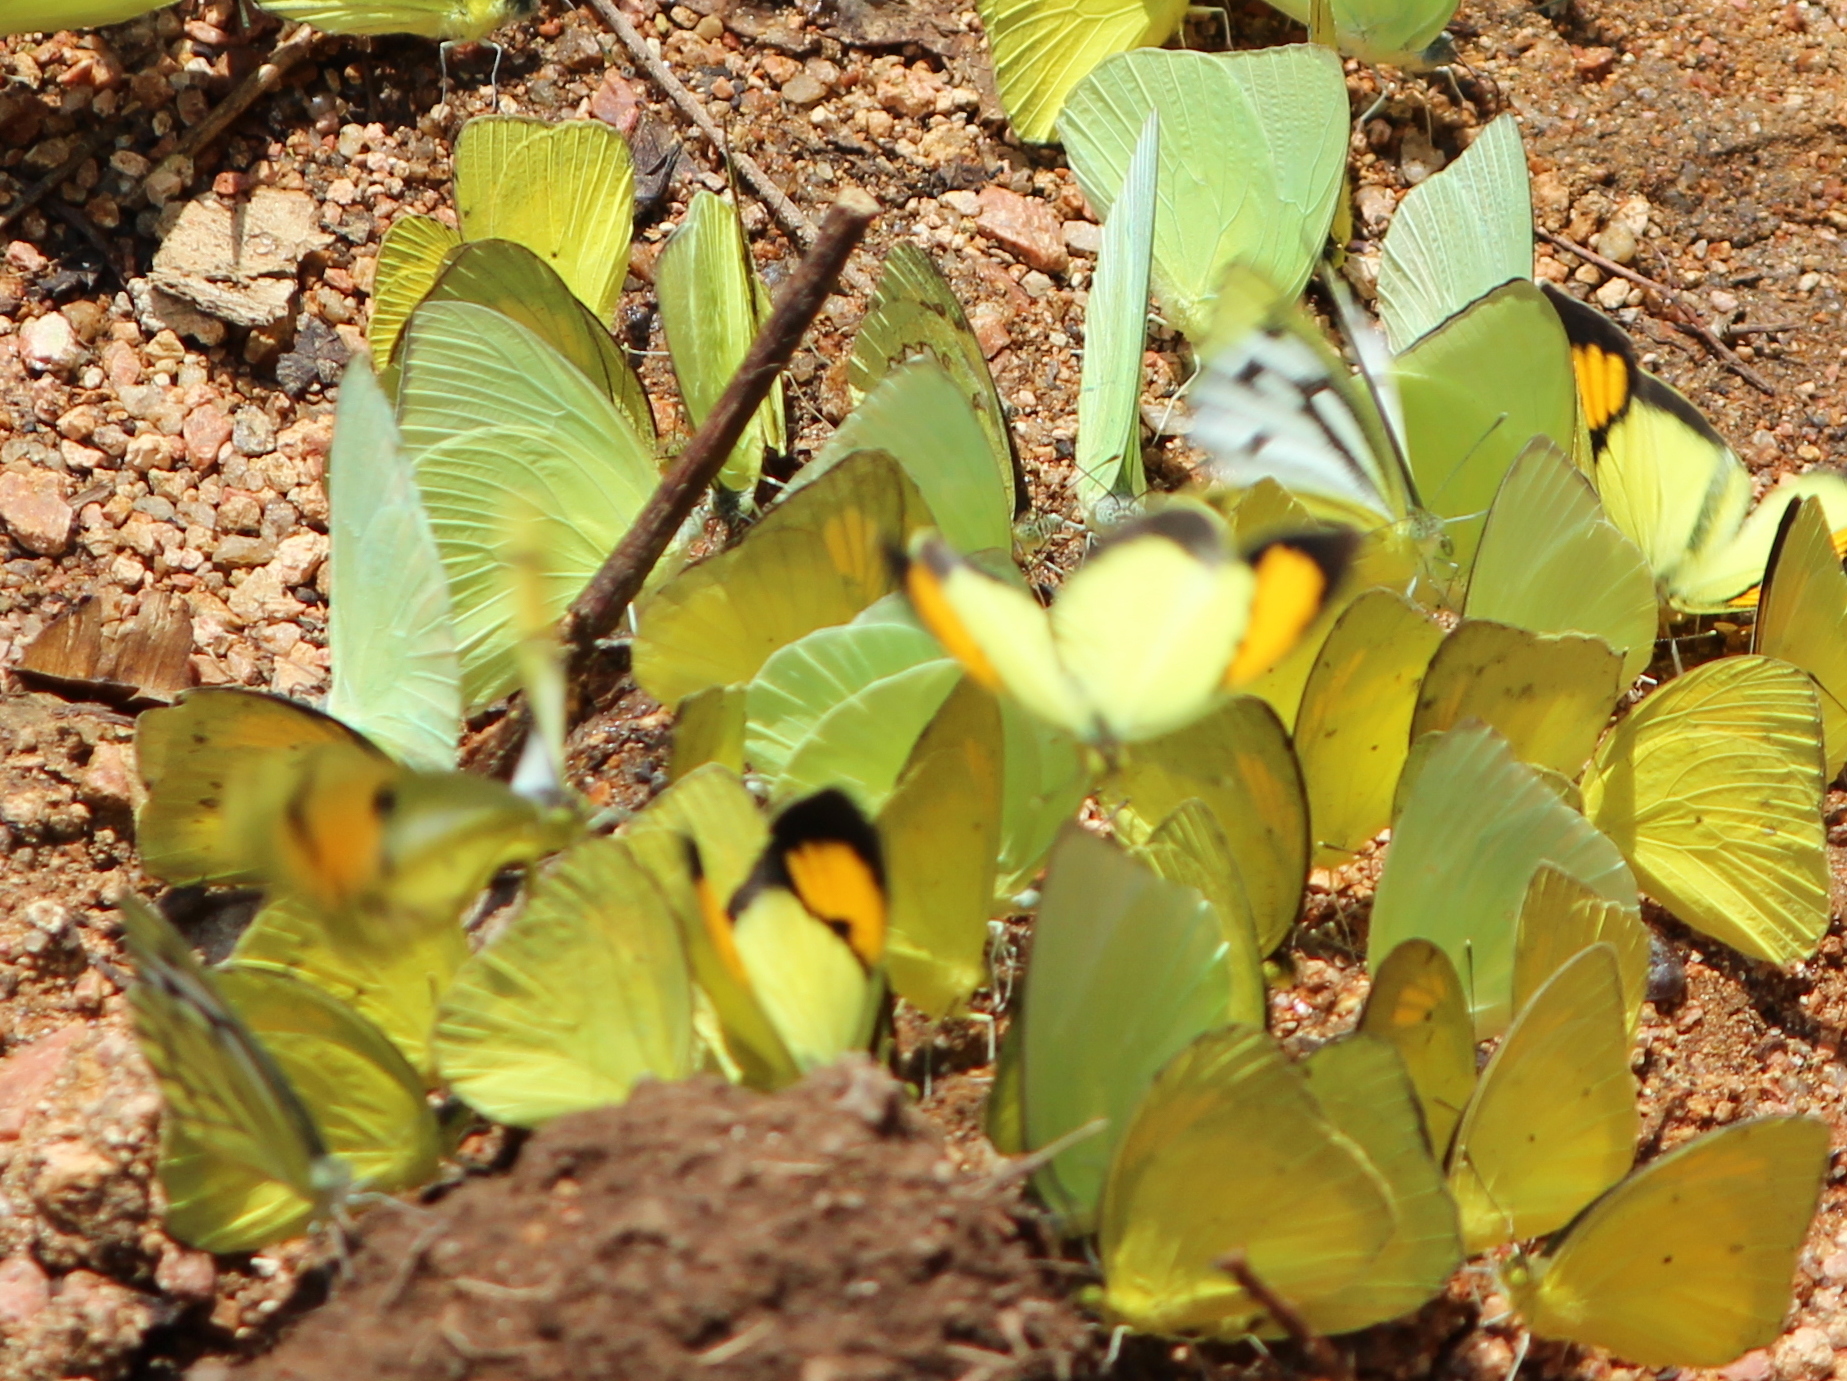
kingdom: Animalia
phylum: Arthropoda
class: Insecta
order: Lepidoptera
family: Pieridae
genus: Ixias
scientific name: Ixias pyrene
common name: Yellow orange tip
